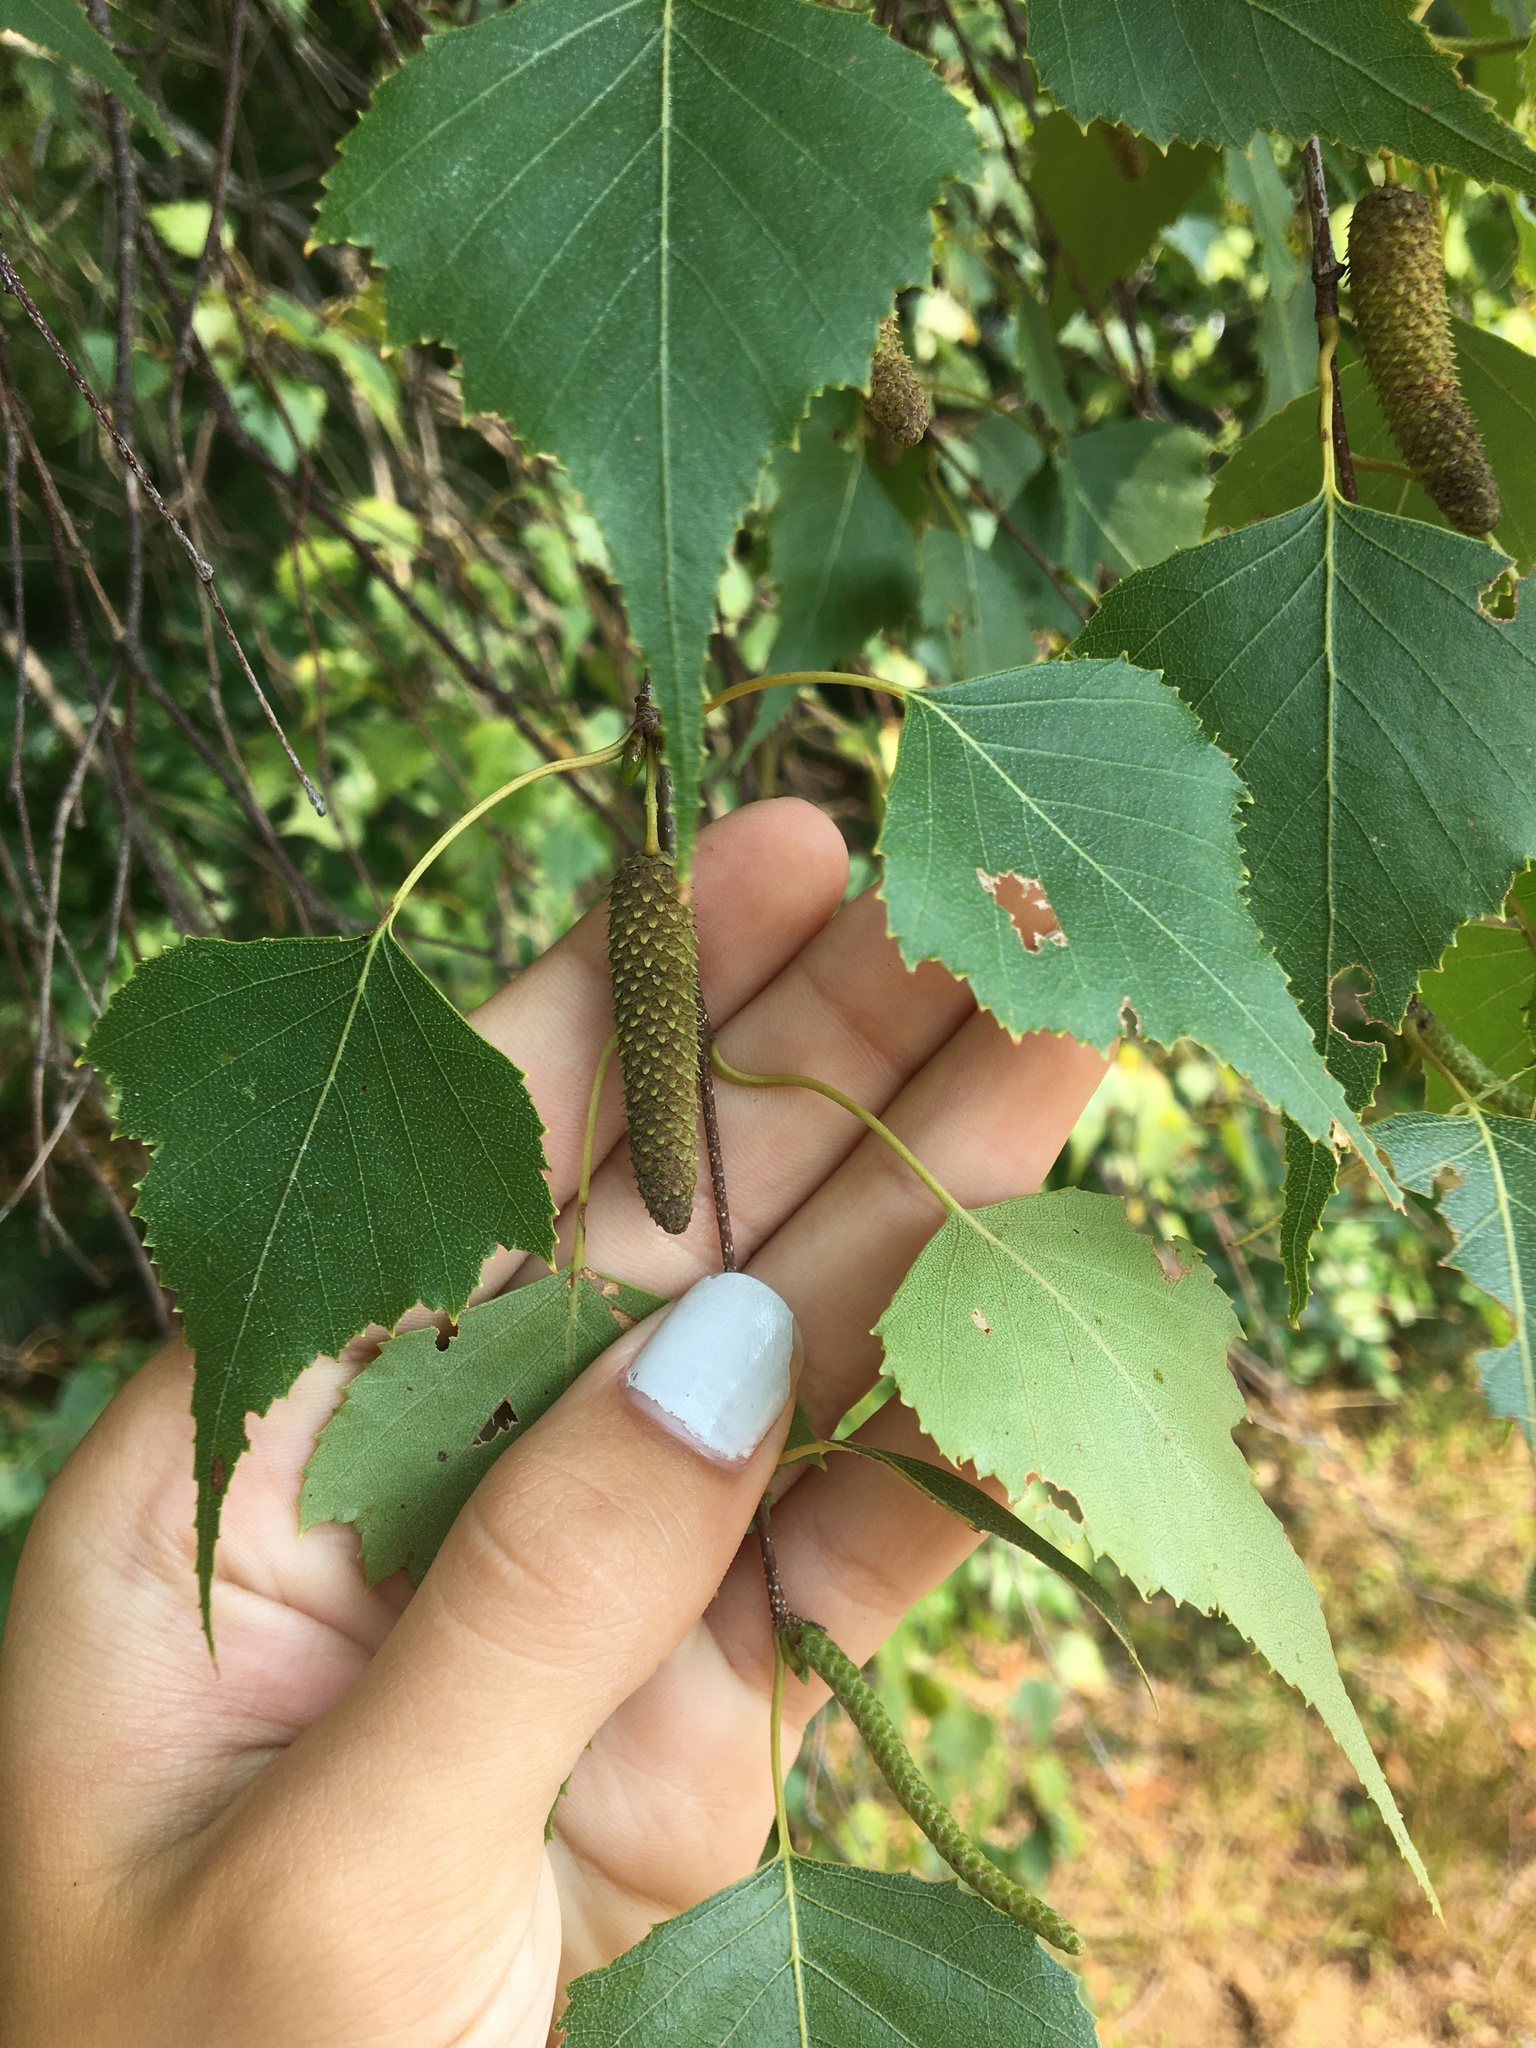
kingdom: Plantae
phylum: Tracheophyta
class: Magnoliopsida
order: Fagales
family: Betulaceae
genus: Betula
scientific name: Betula populifolia
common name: Fire birch
